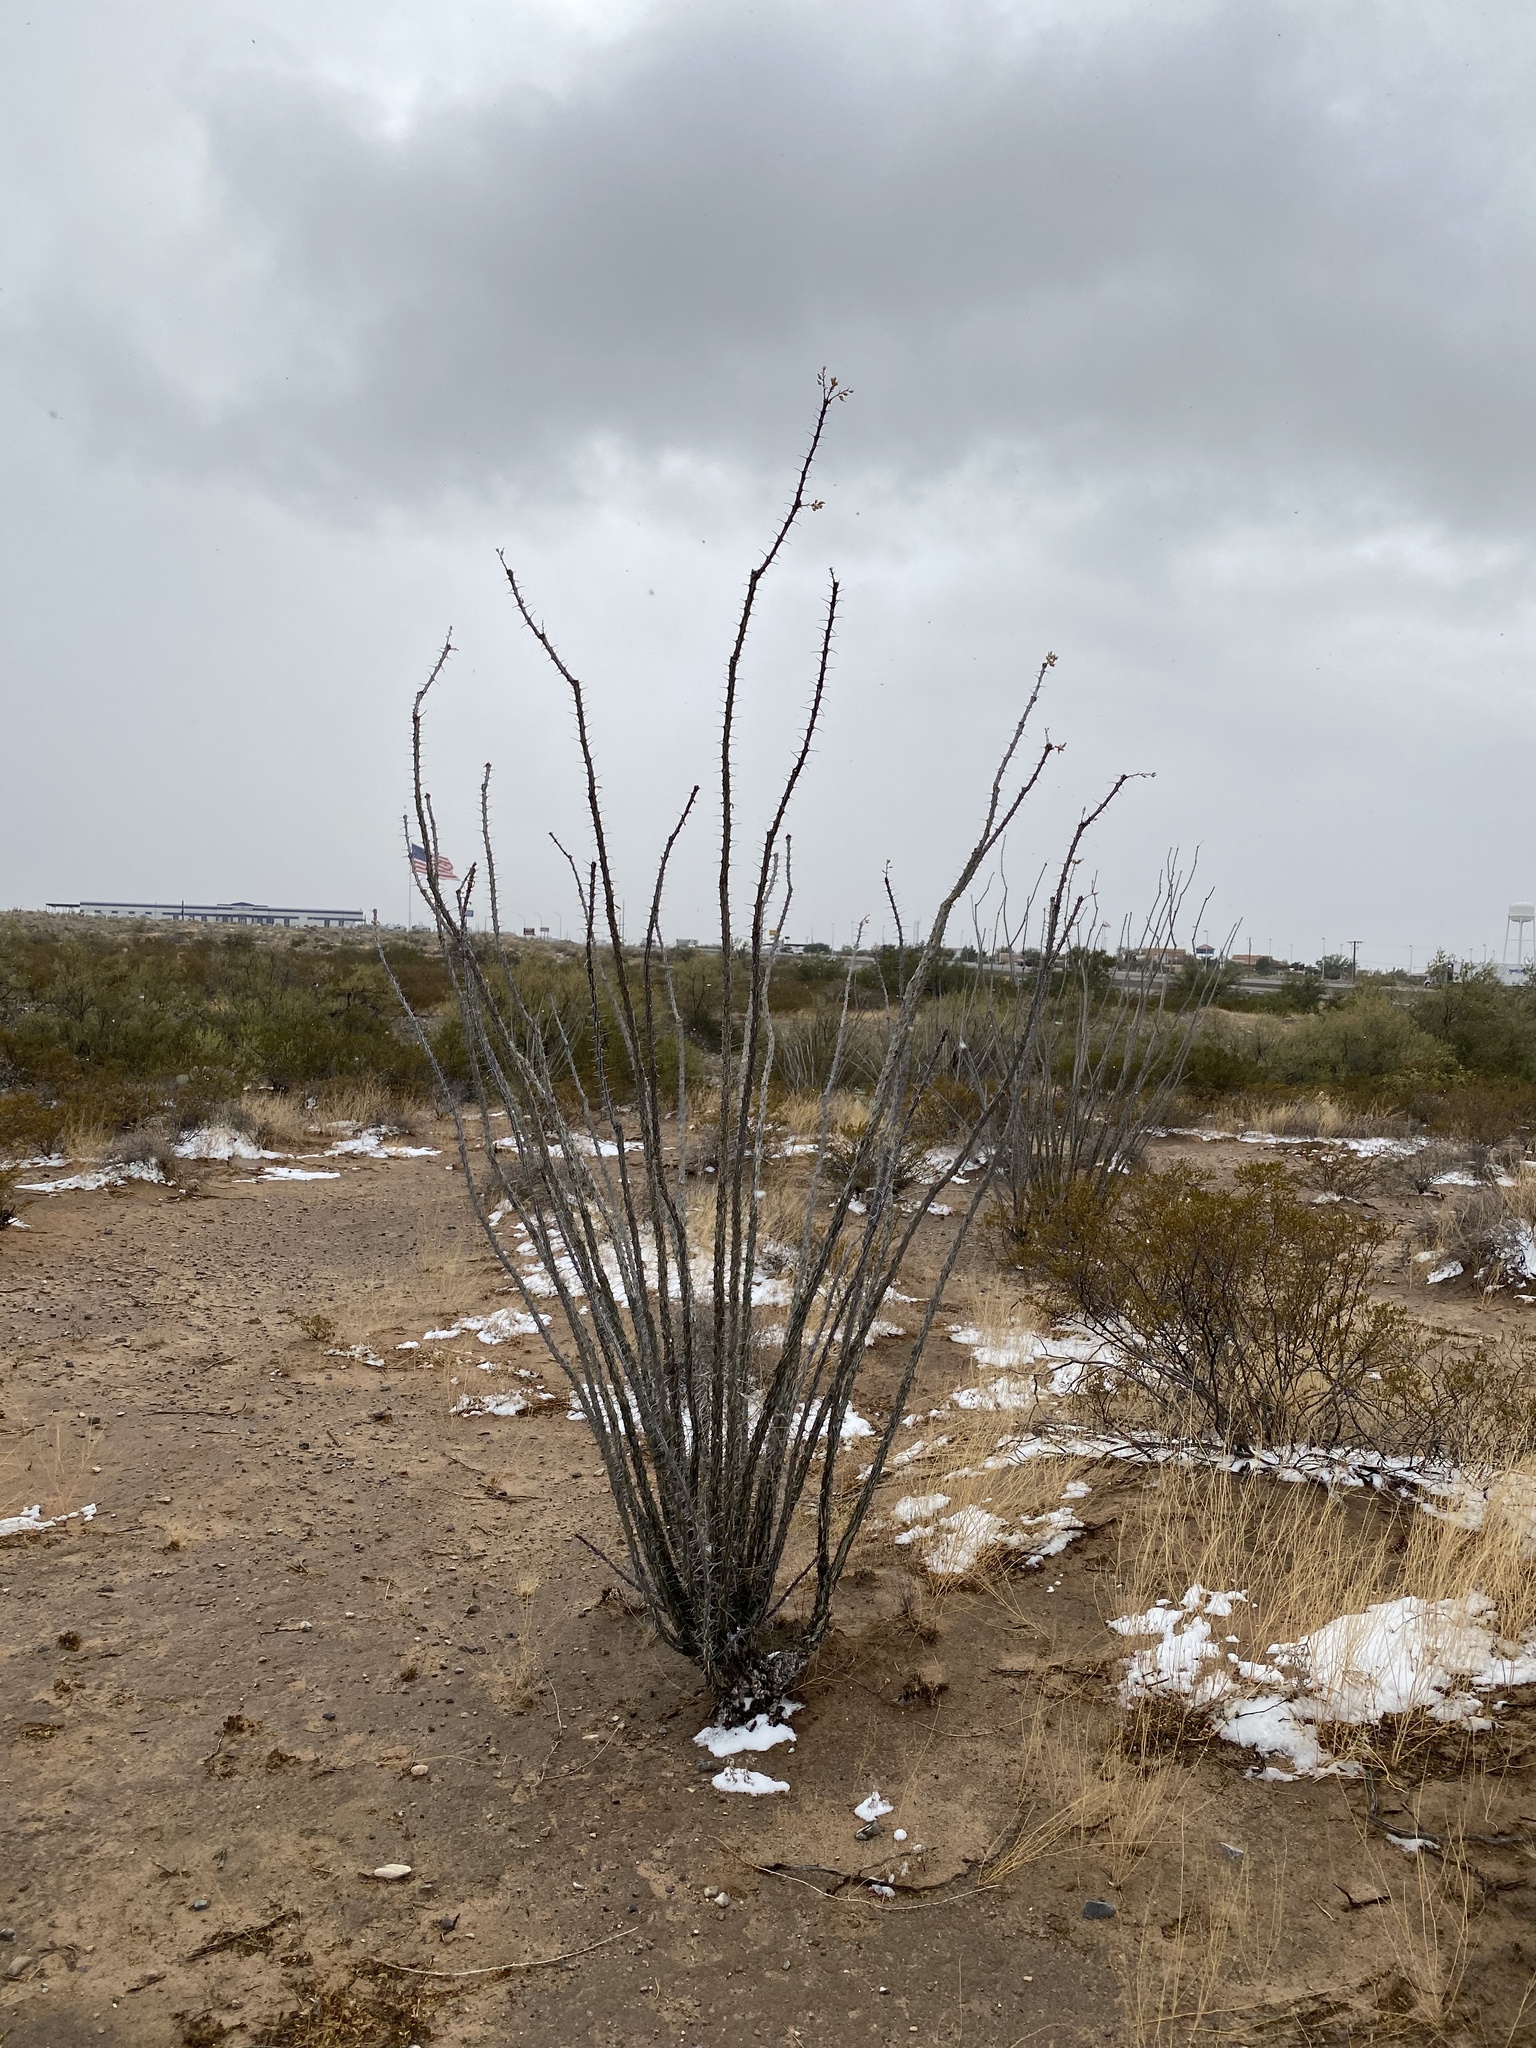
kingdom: Plantae
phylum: Tracheophyta
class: Magnoliopsida
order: Ericales
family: Fouquieriaceae
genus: Fouquieria
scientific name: Fouquieria splendens
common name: Vine-cactus
